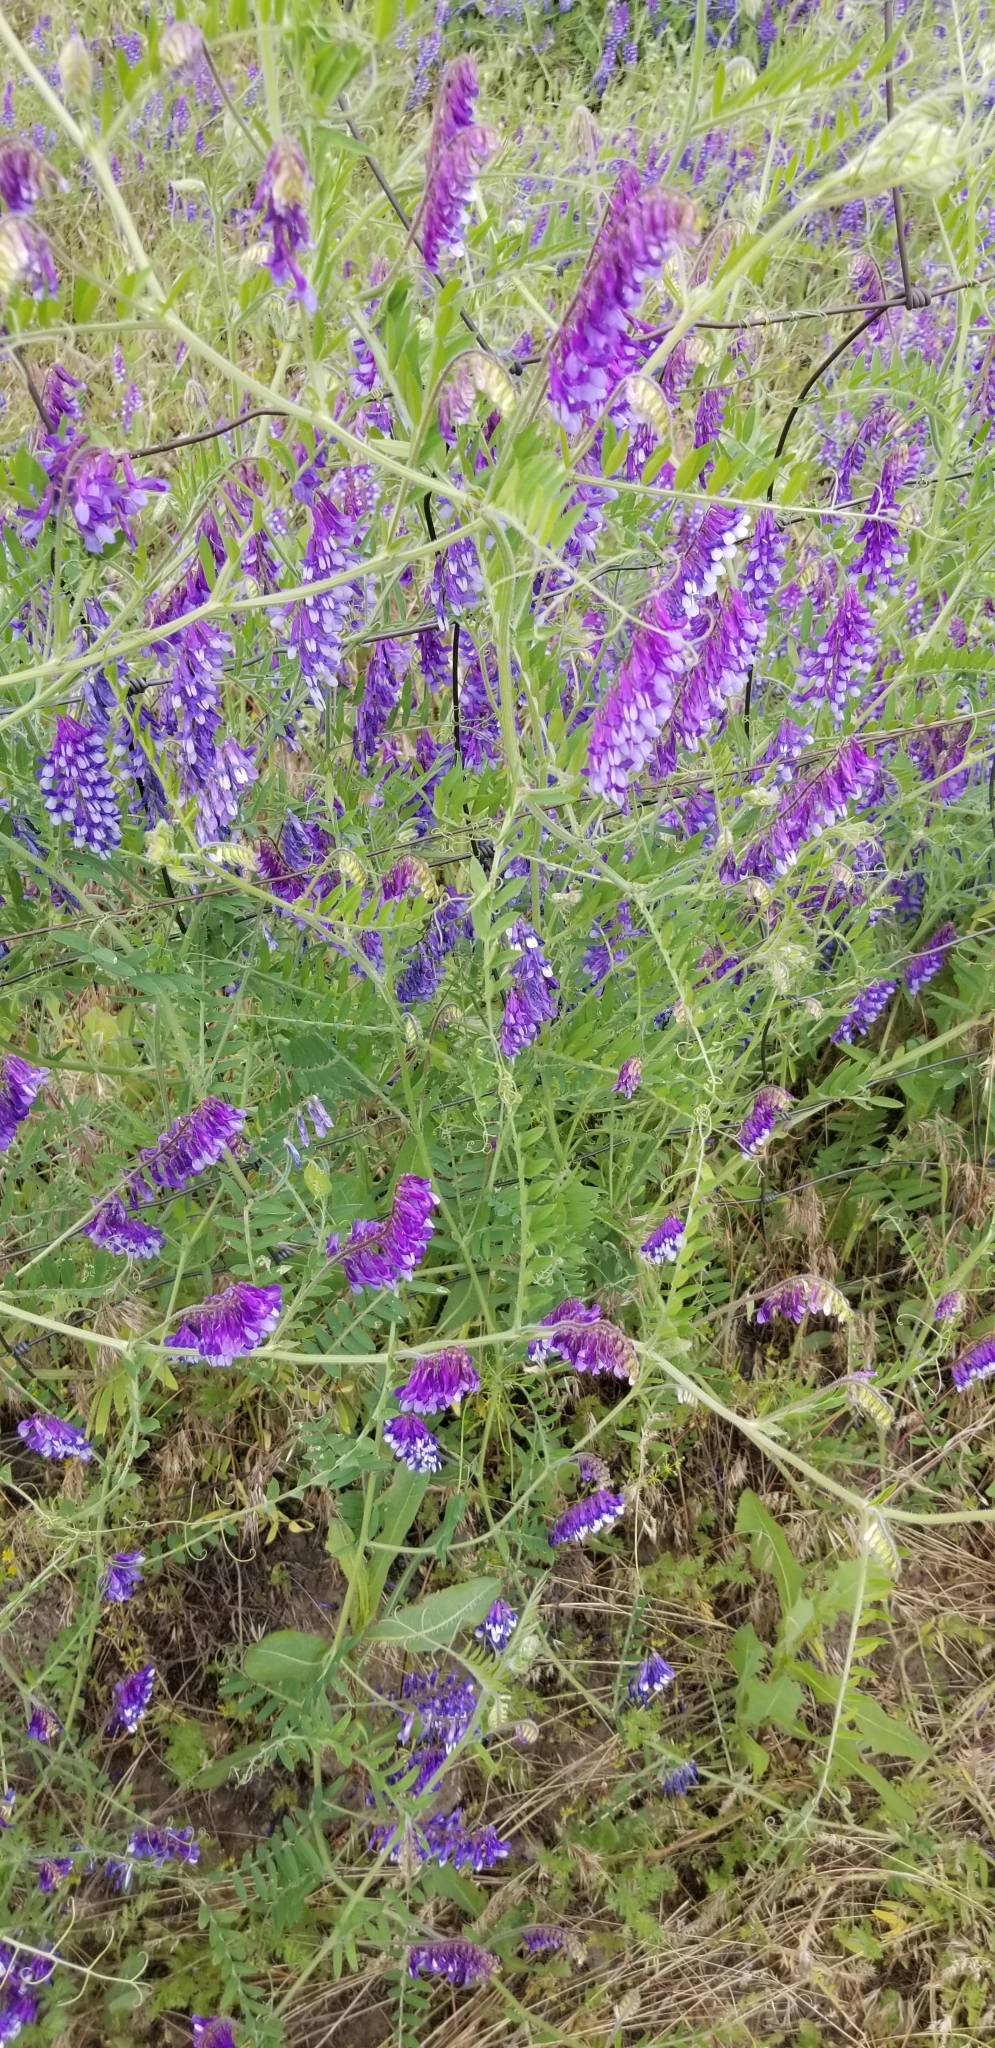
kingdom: Plantae
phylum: Tracheophyta
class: Magnoliopsida
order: Fabales
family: Fabaceae
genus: Vicia
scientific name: Vicia villosa
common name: Fodder vetch
